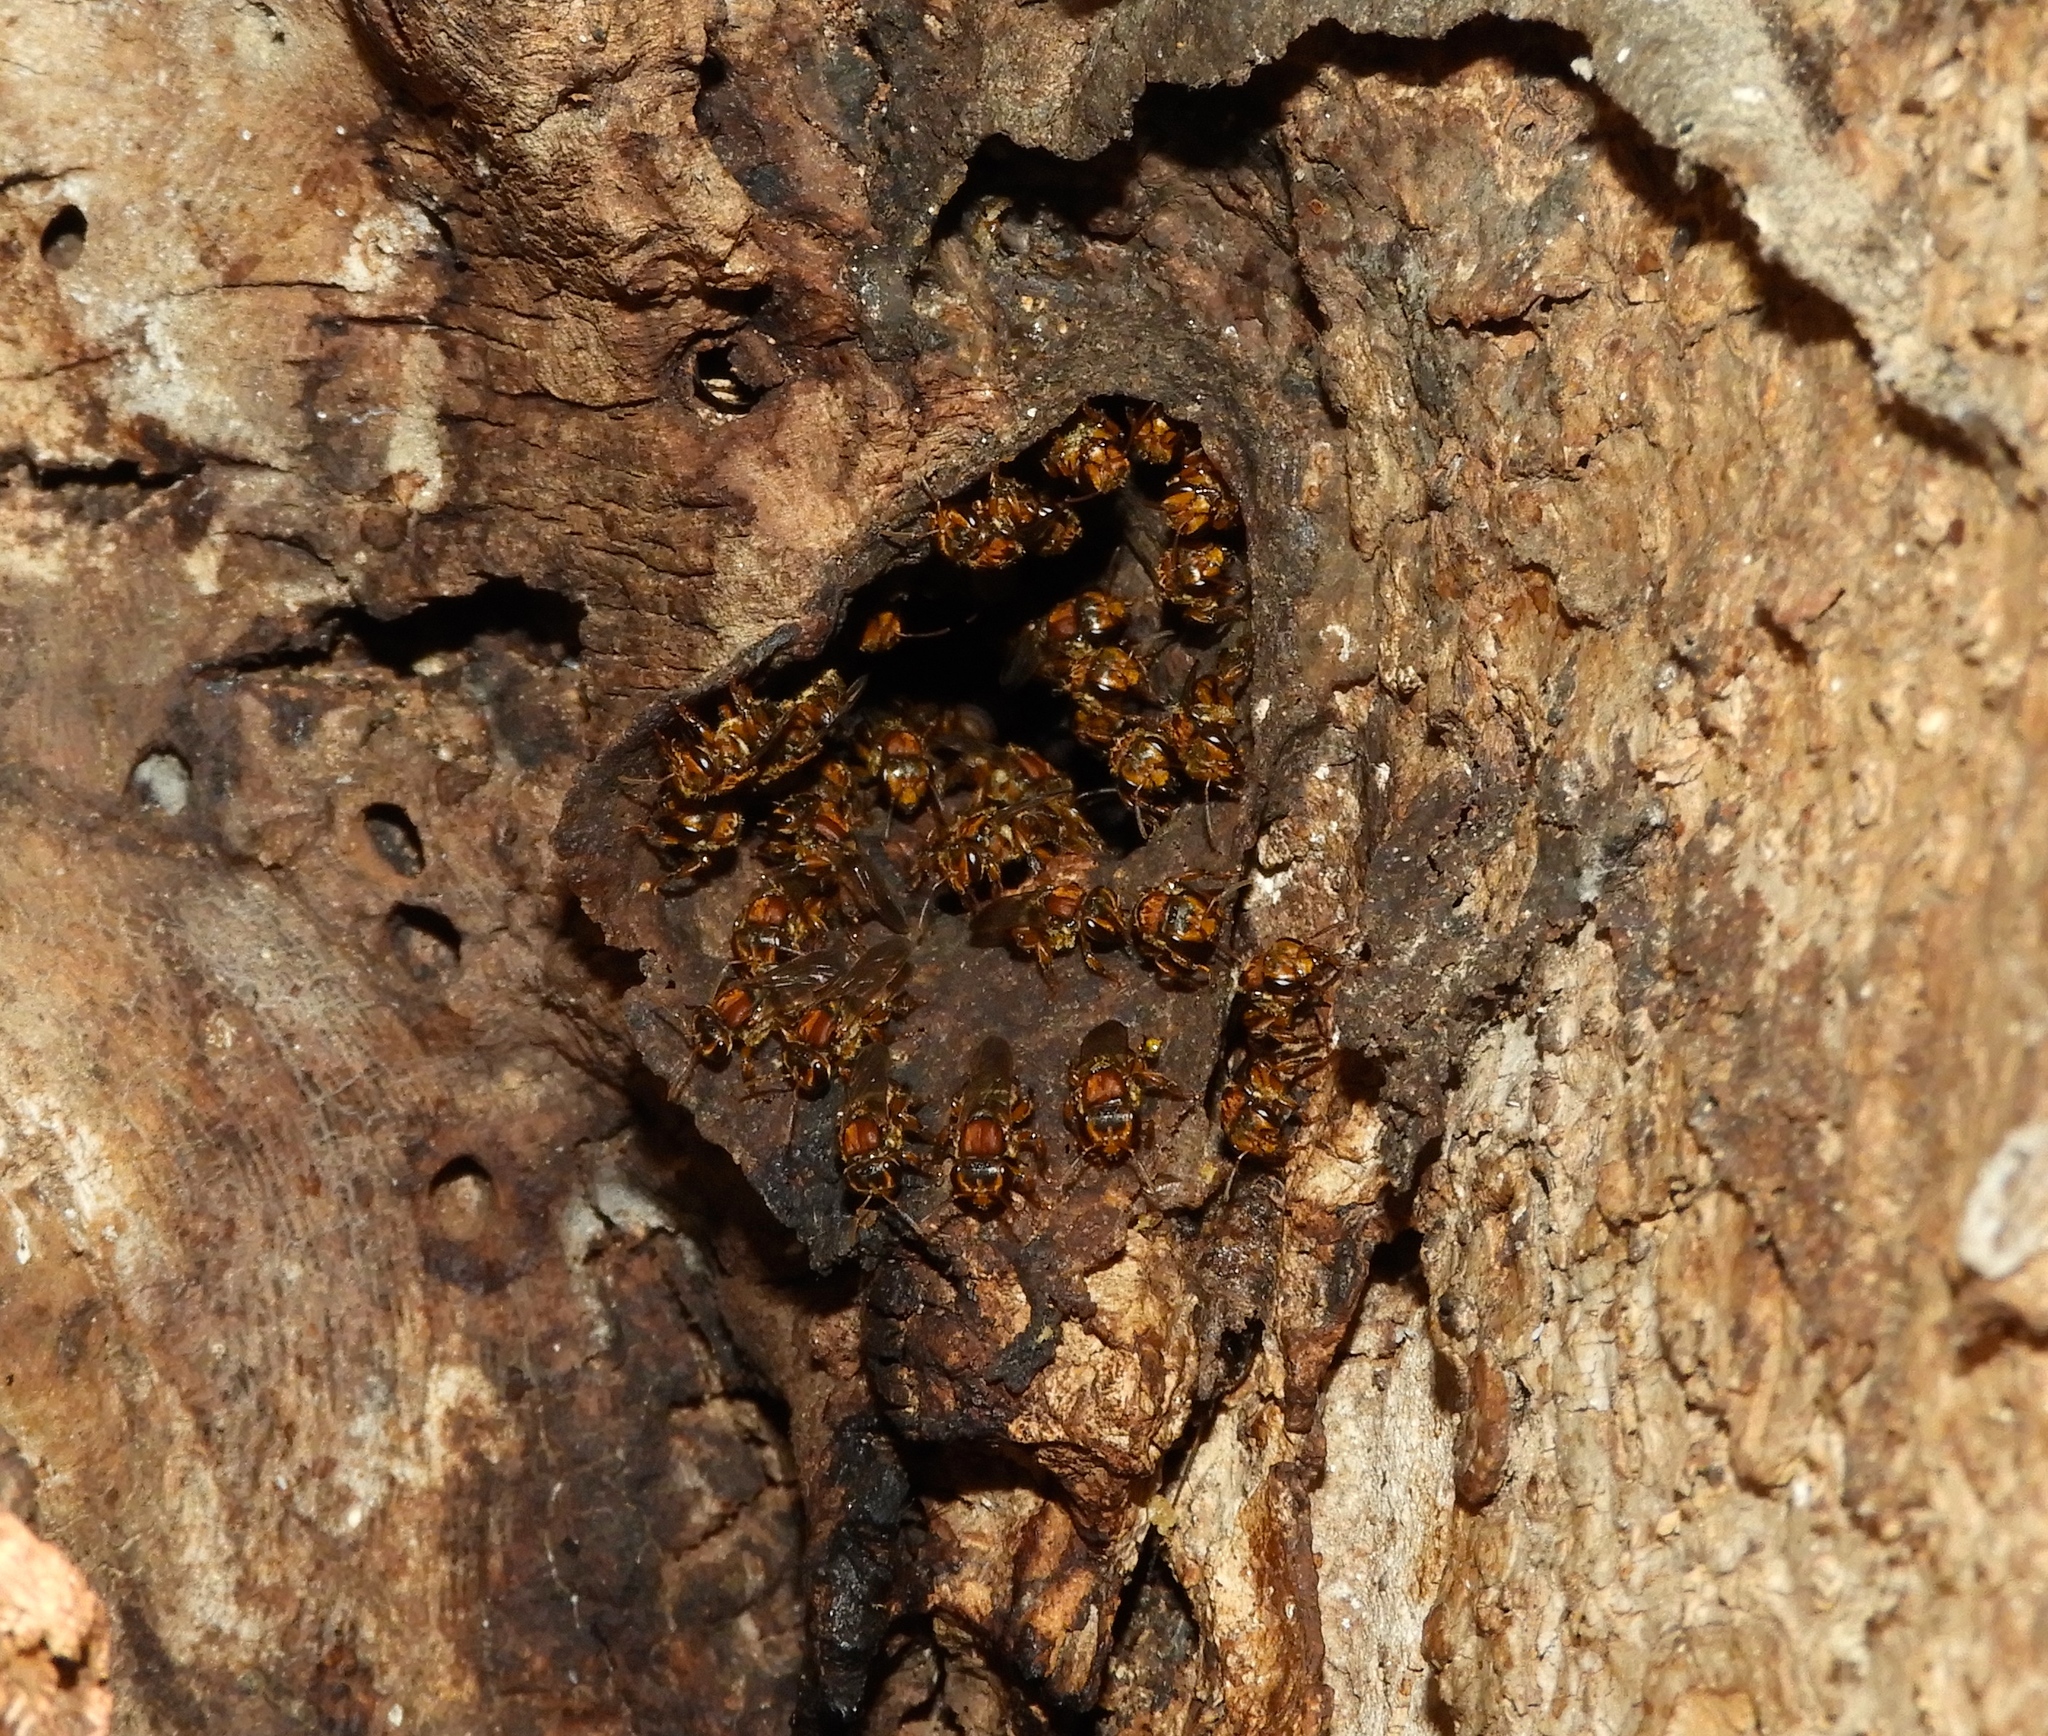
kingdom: Animalia
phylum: Arthropoda
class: Insecta
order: Hymenoptera
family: Apidae
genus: Scaptotrigona
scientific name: Scaptotrigona hellwegeri
